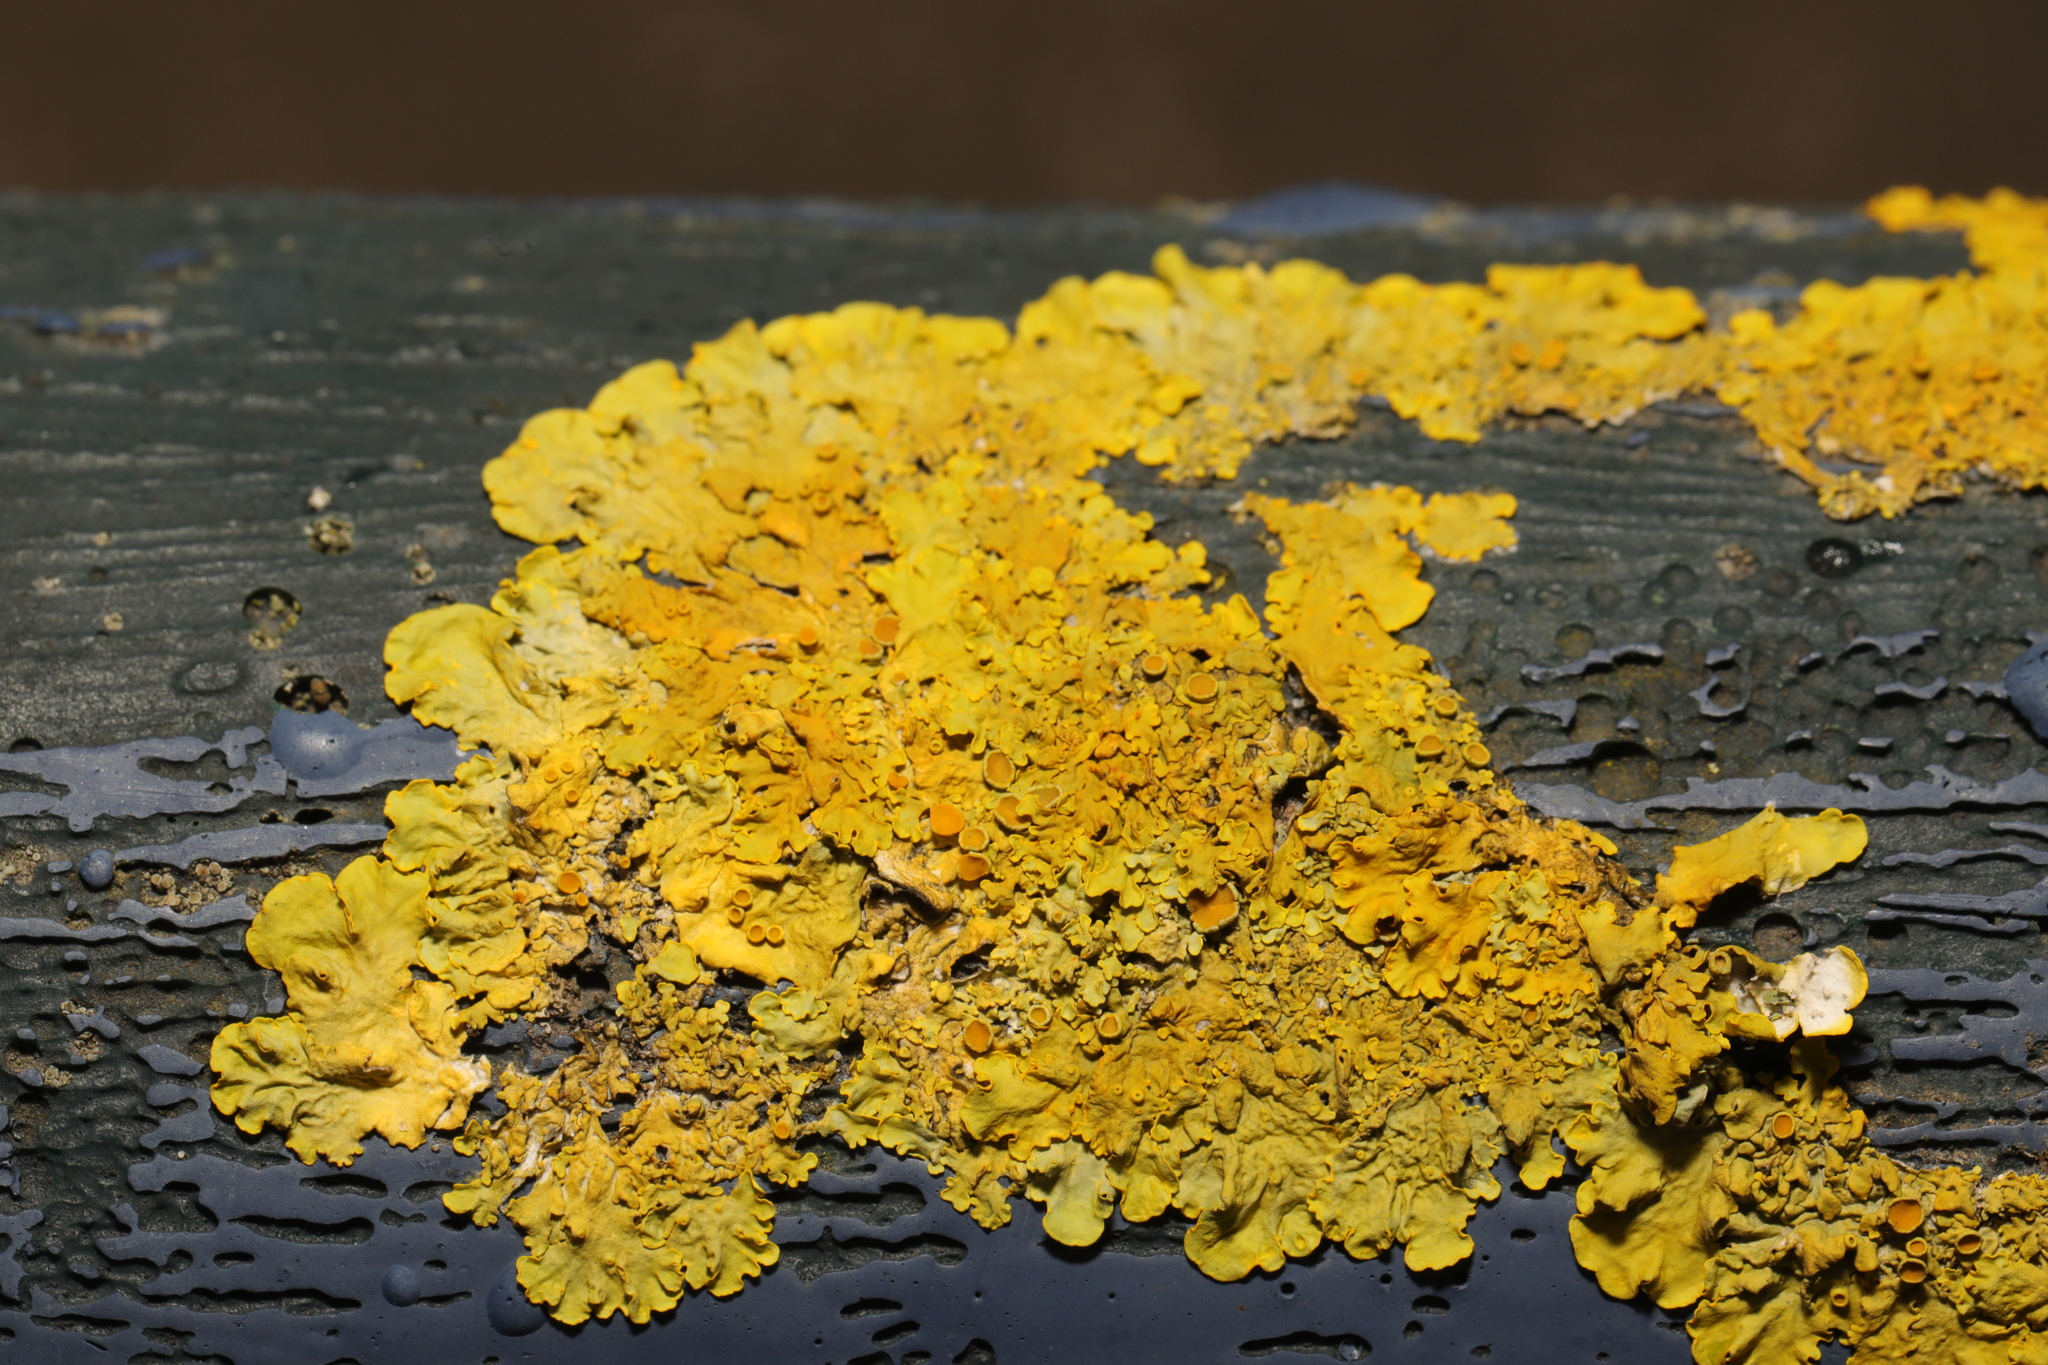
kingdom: Fungi
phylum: Ascomycota
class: Lecanoromycetes
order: Teloschistales
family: Teloschistaceae
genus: Xanthoria
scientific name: Xanthoria parietina
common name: Common orange lichen
